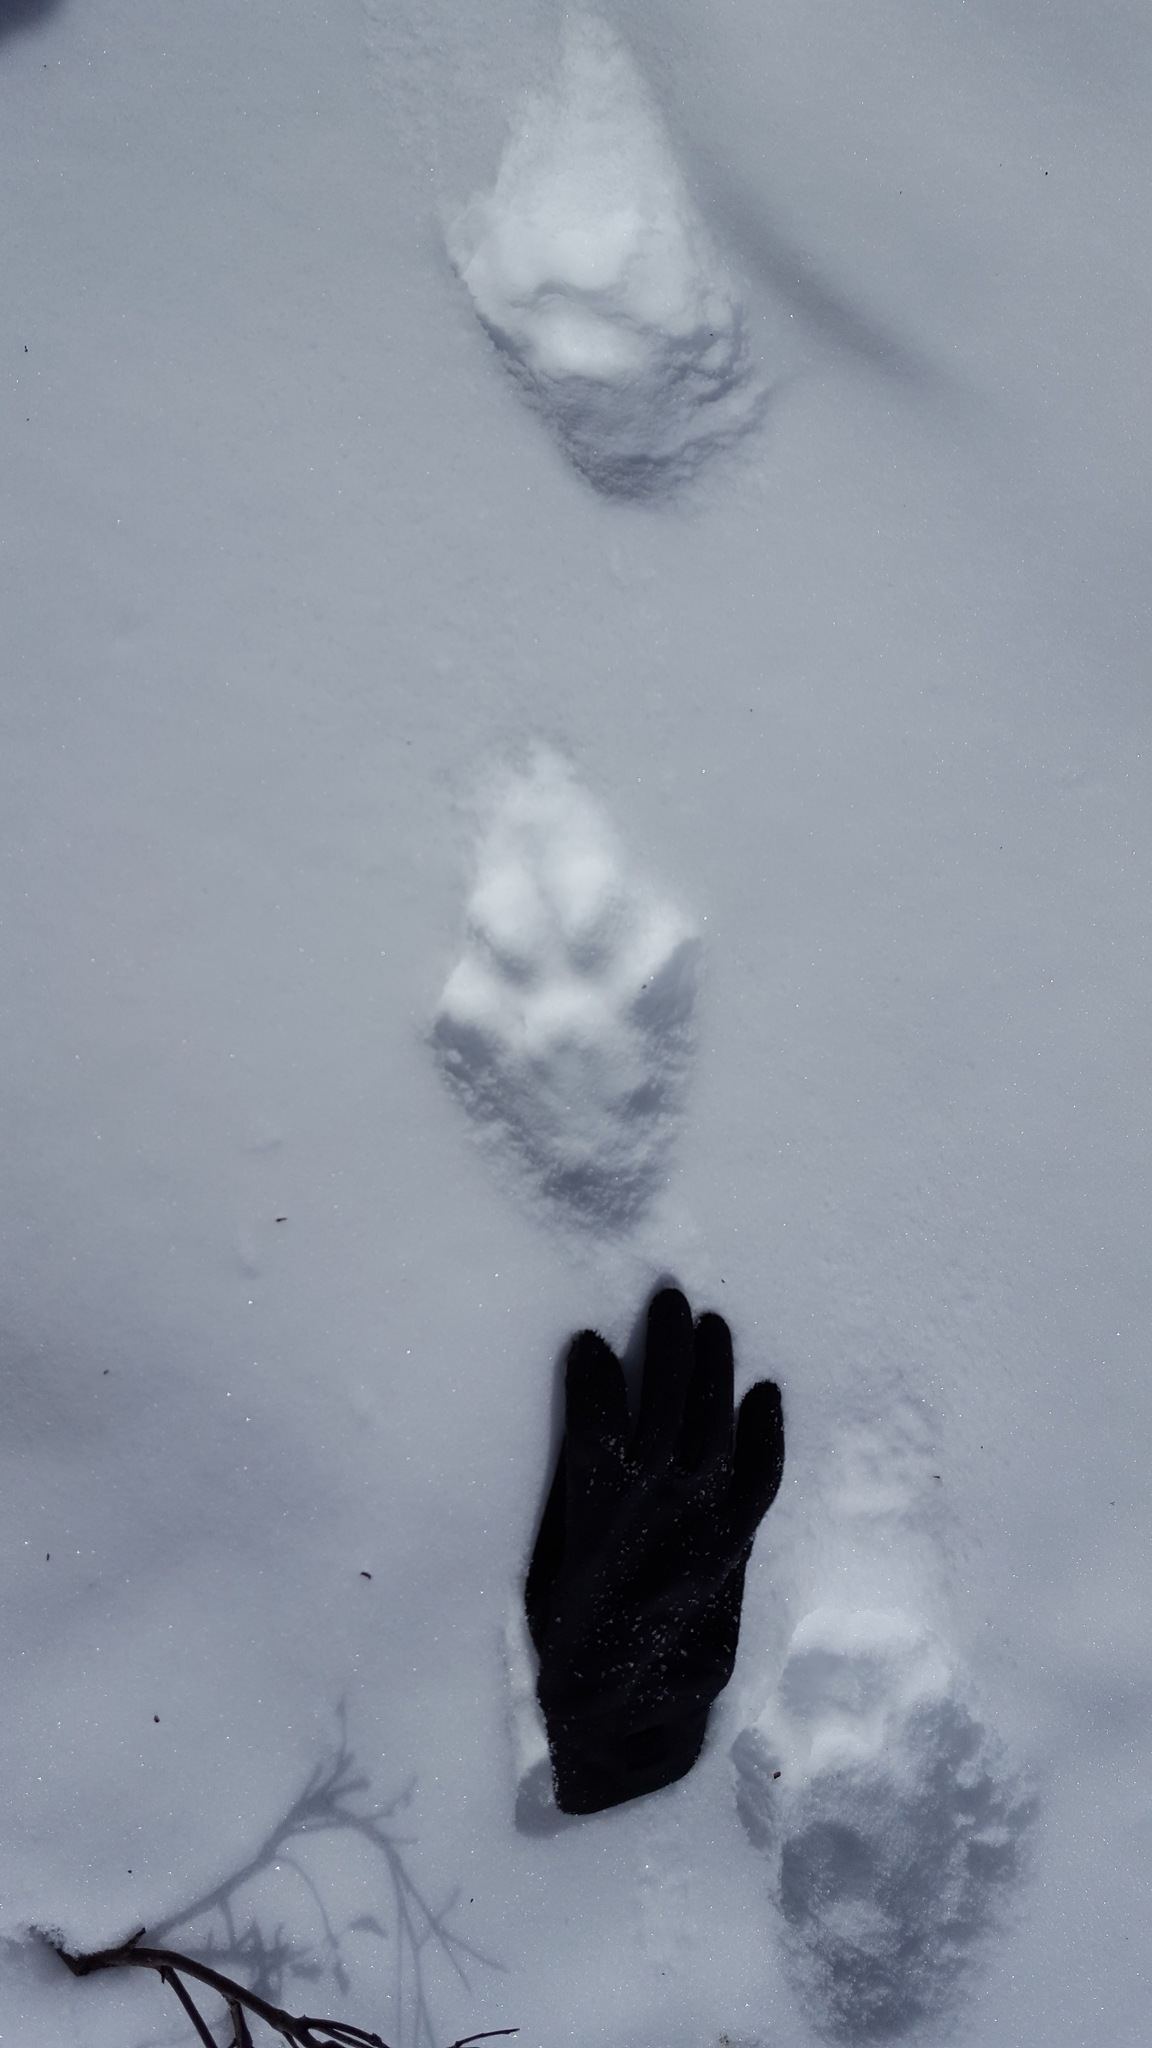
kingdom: Animalia
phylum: Chordata
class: Mammalia
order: Carnivora
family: Felidae
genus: Lynx
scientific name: Lynx canadensis
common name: Canadian lynx
